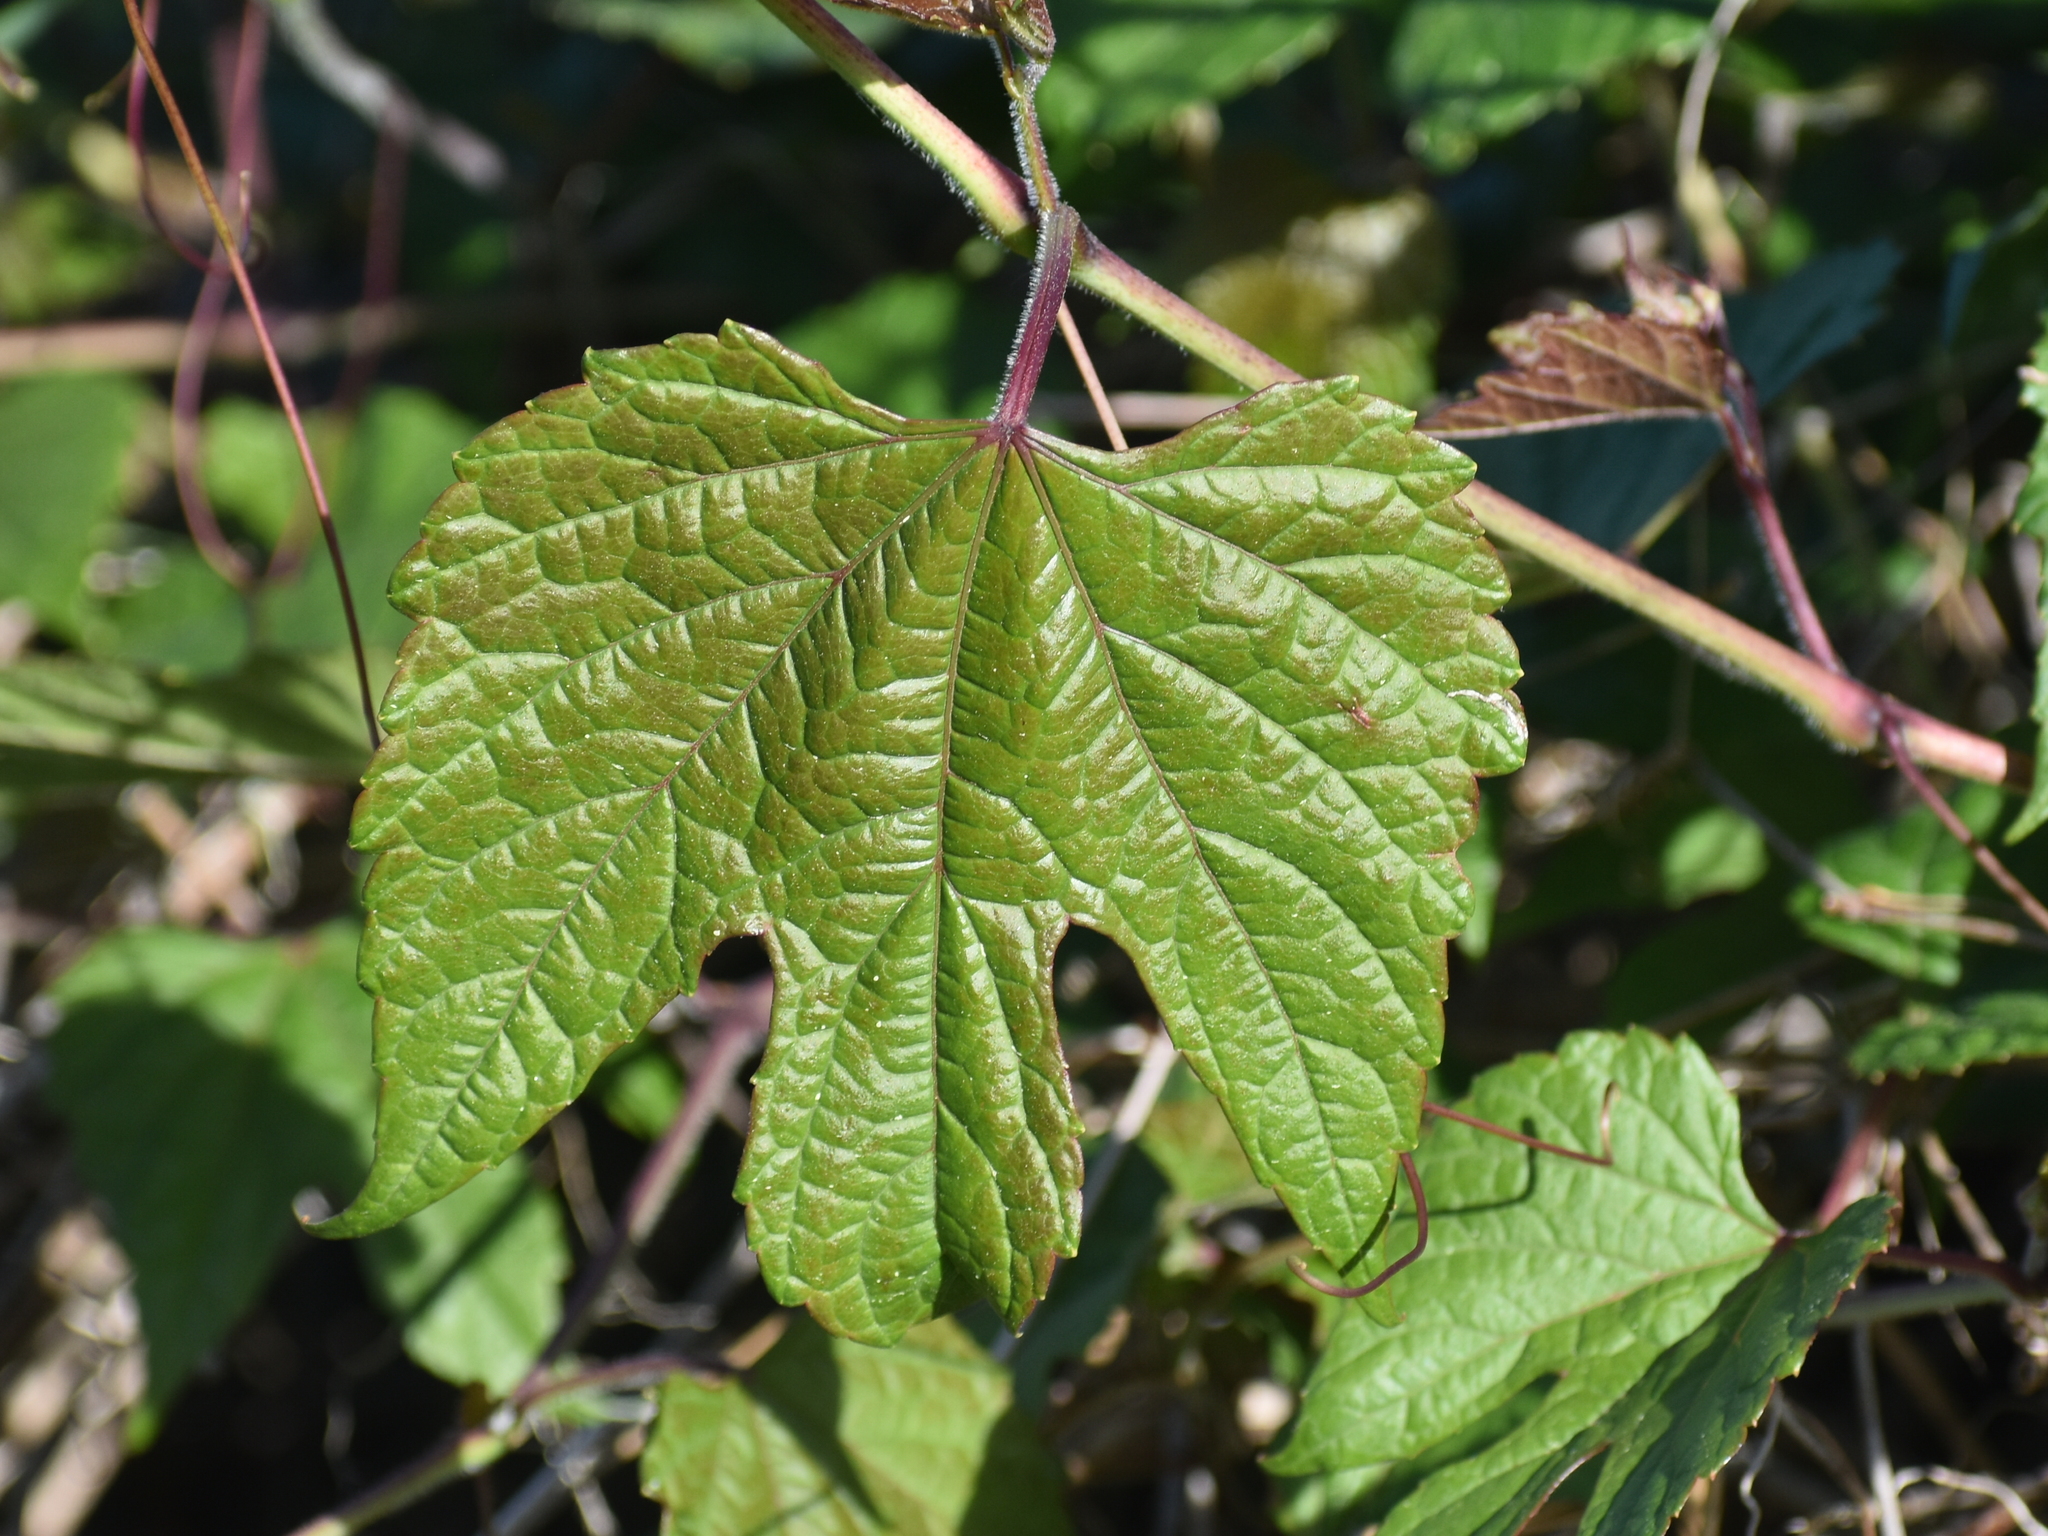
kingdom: Plantae
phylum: Tracheophyta
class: Magnoliopsida
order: Vitales
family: Vitaceae
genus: Ampelopsis
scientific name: Ampelopsis glandulosa
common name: Amur peppervine
